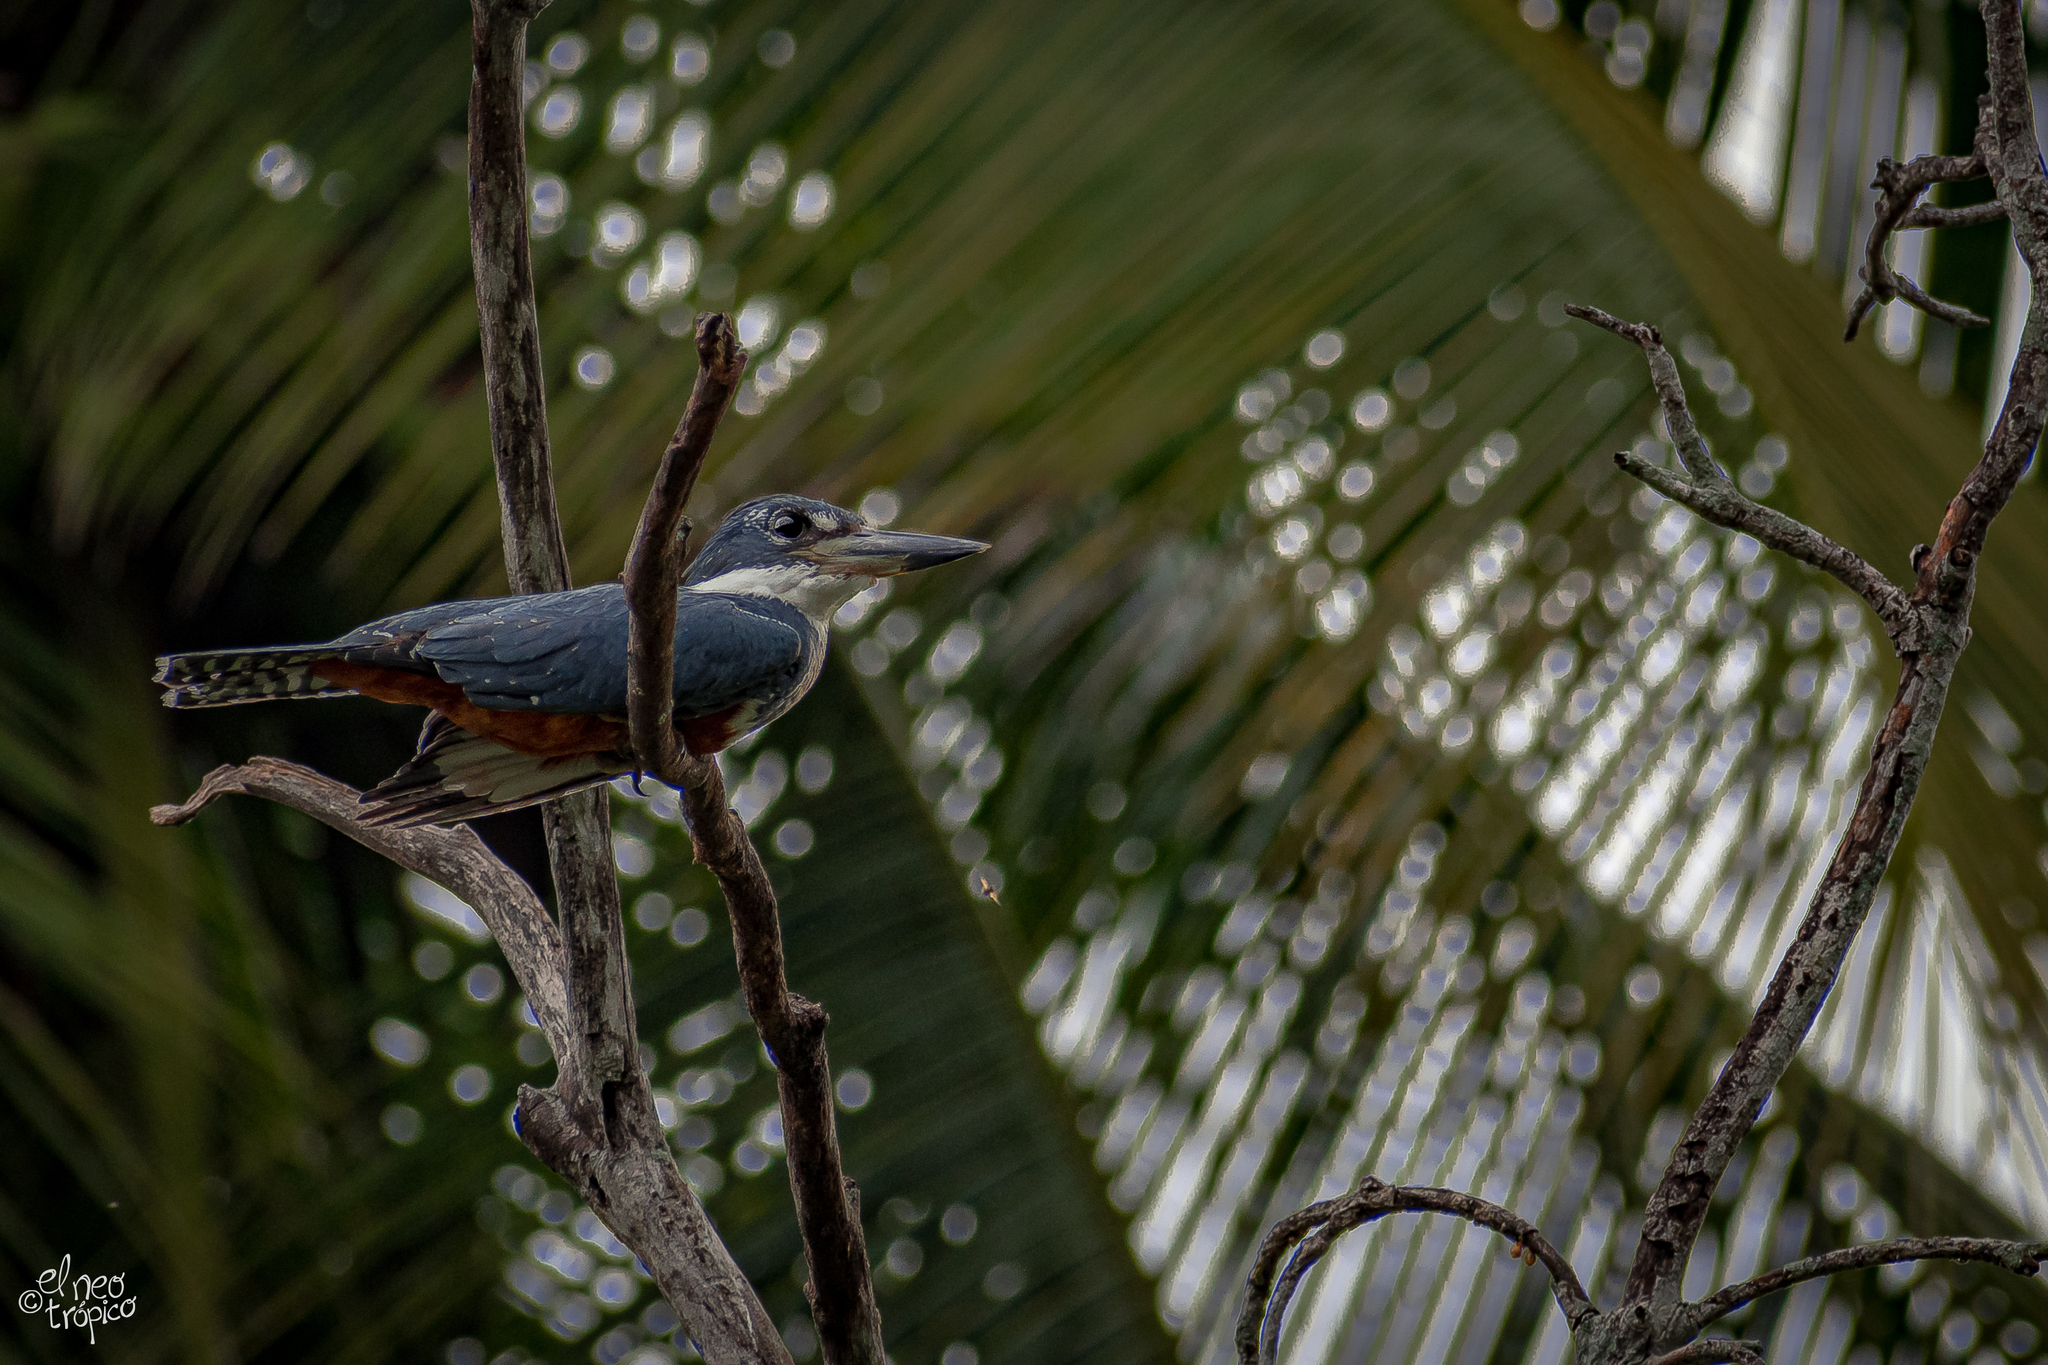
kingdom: Animalia
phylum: Chordata
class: Aves
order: Coraciiformes
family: Alcedinidae
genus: Megaceryle
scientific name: Megaceryle torquata
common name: Ringed kingfisher
